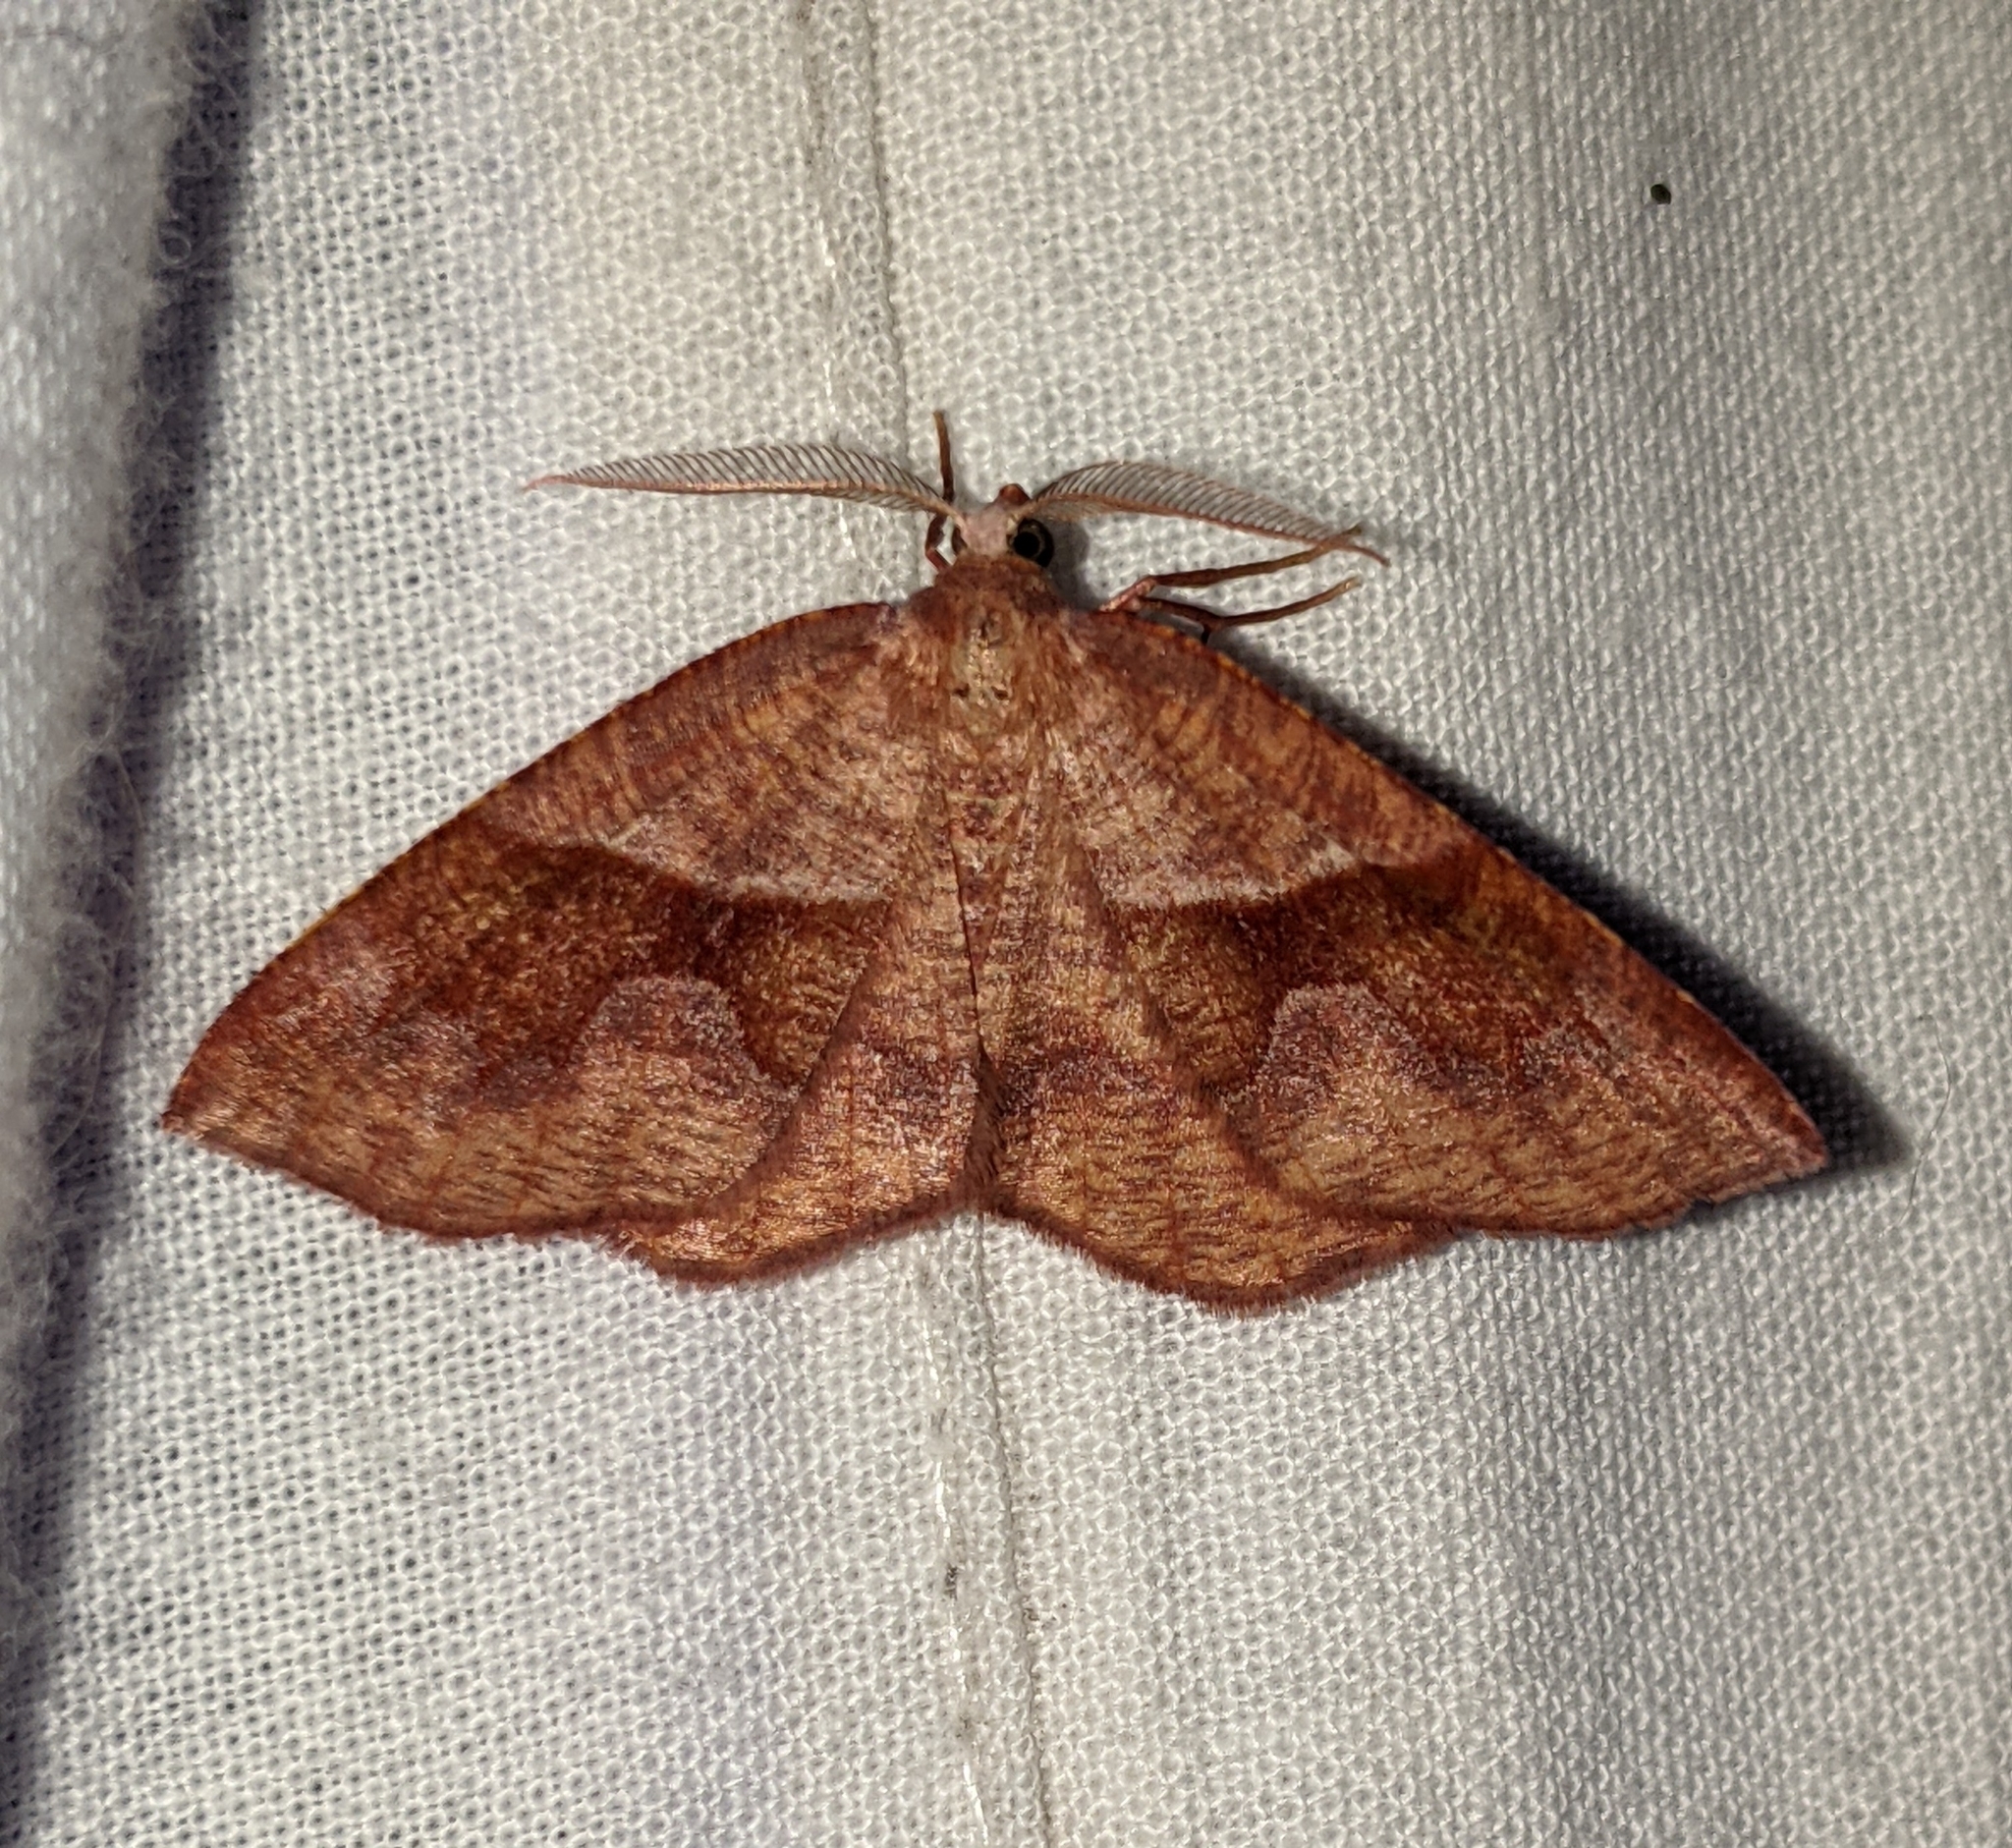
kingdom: Animalia
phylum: Arthropoda
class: Insecta
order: Lepidoptera
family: Geometridae
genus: Plagodis
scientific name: Plagodis pulveraria
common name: Barred umber
